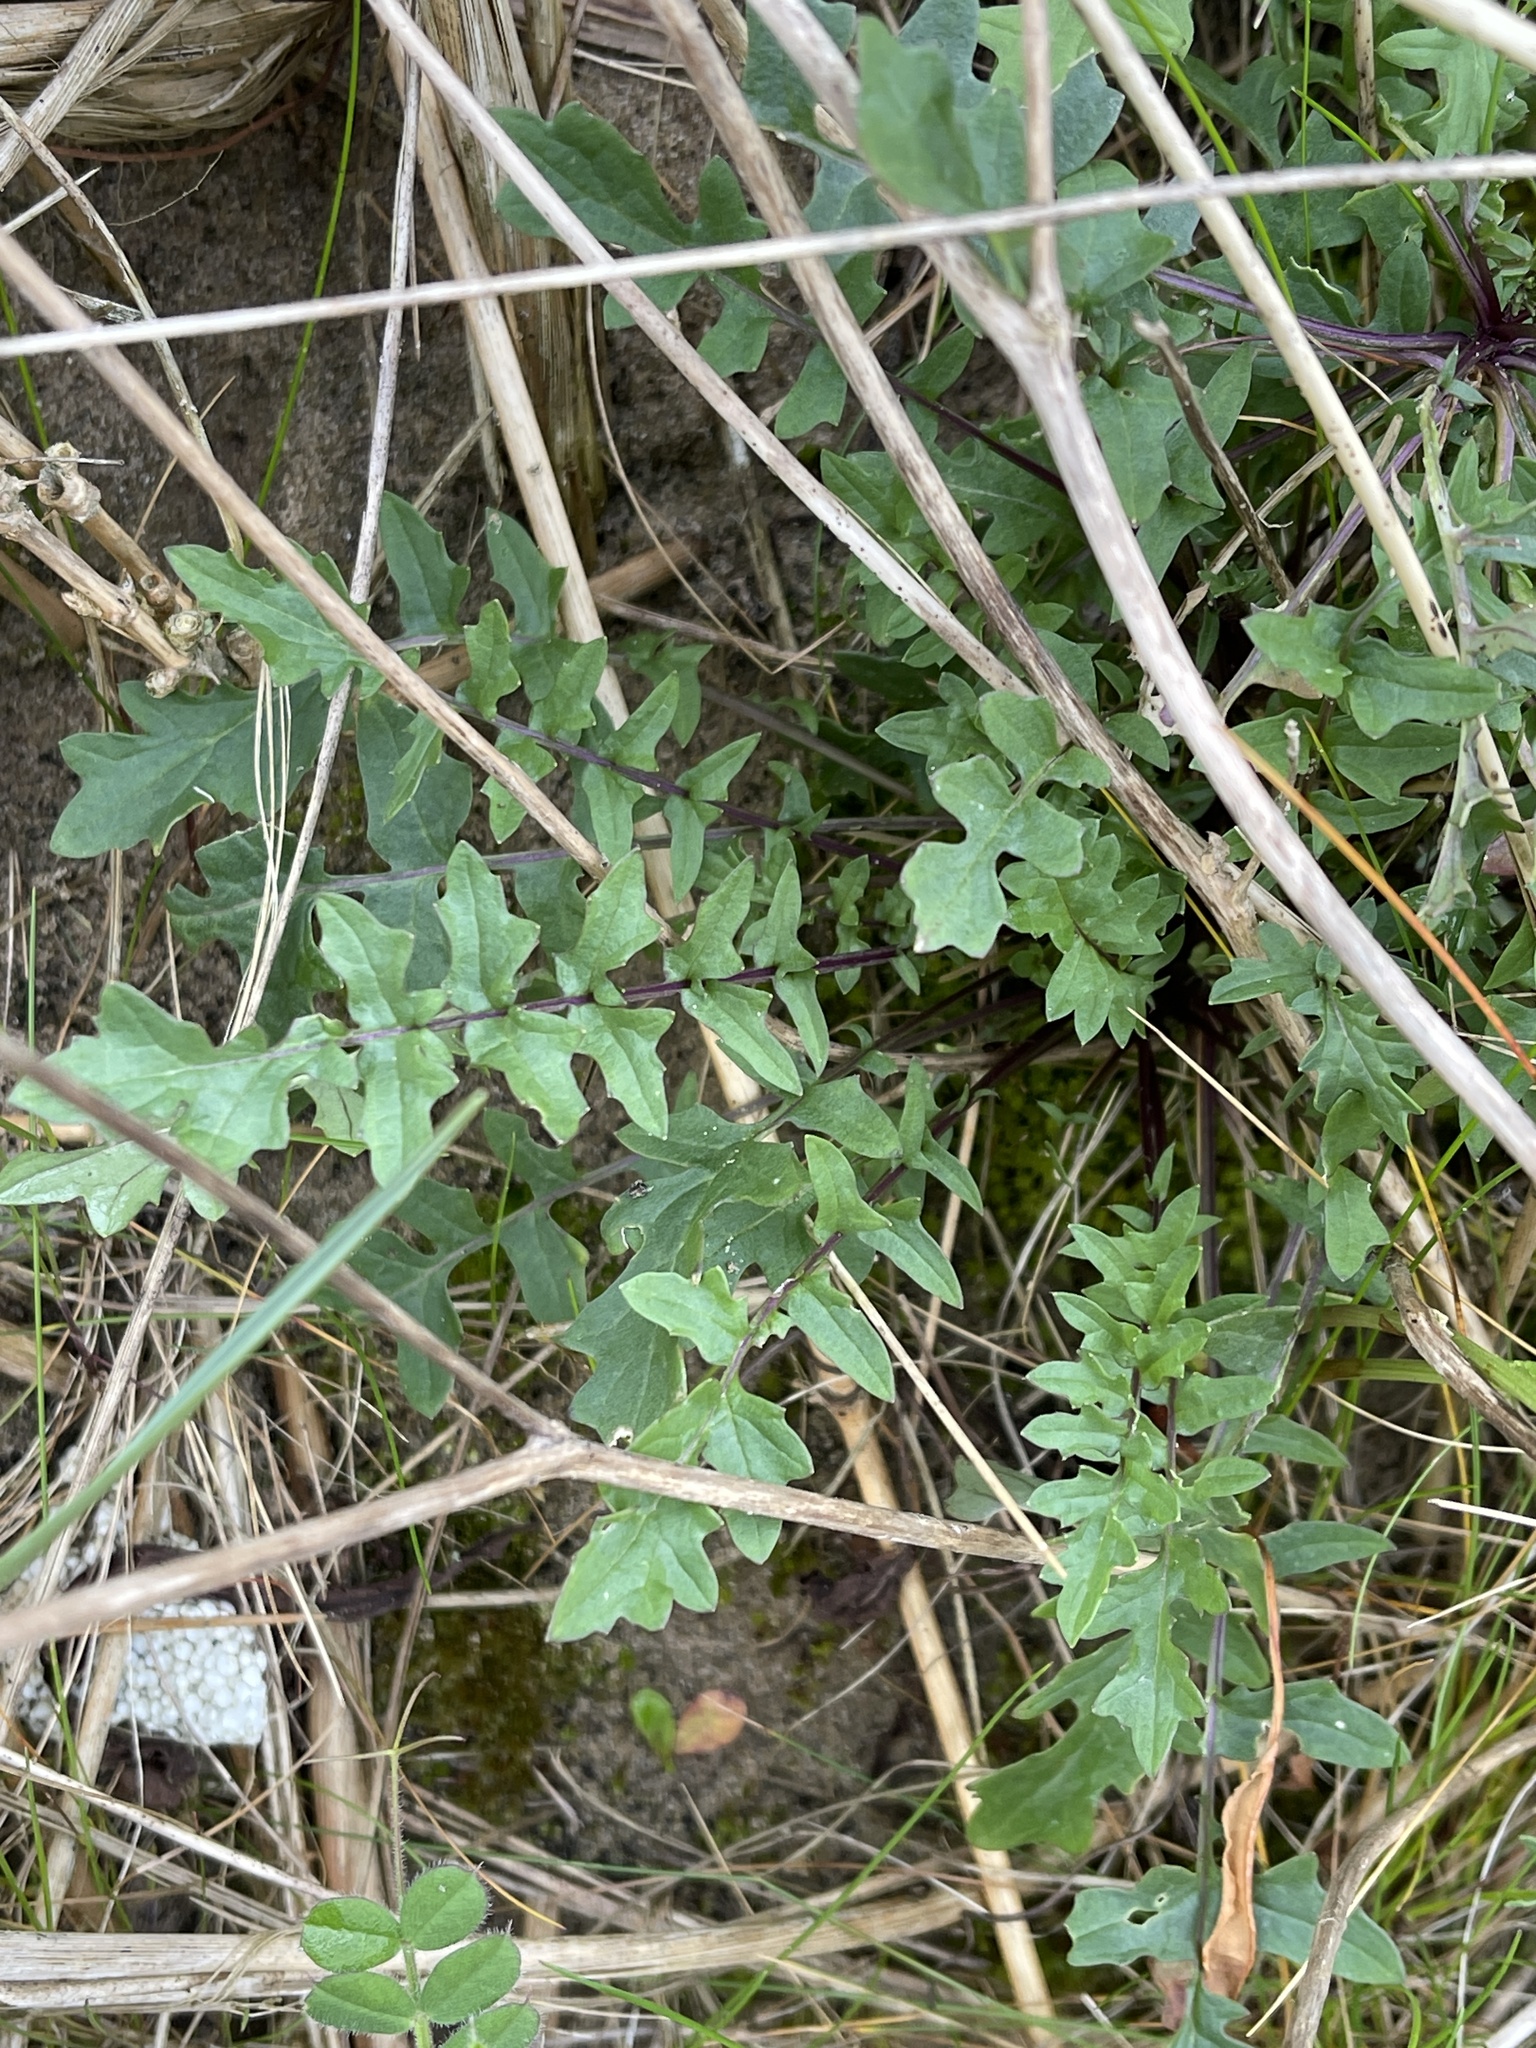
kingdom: Plantae
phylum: Tracheophyta
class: Magnoliopsida
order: Brassicales
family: Brassicaceae
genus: Coincya
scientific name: Coincya monensis
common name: Star-mustard
